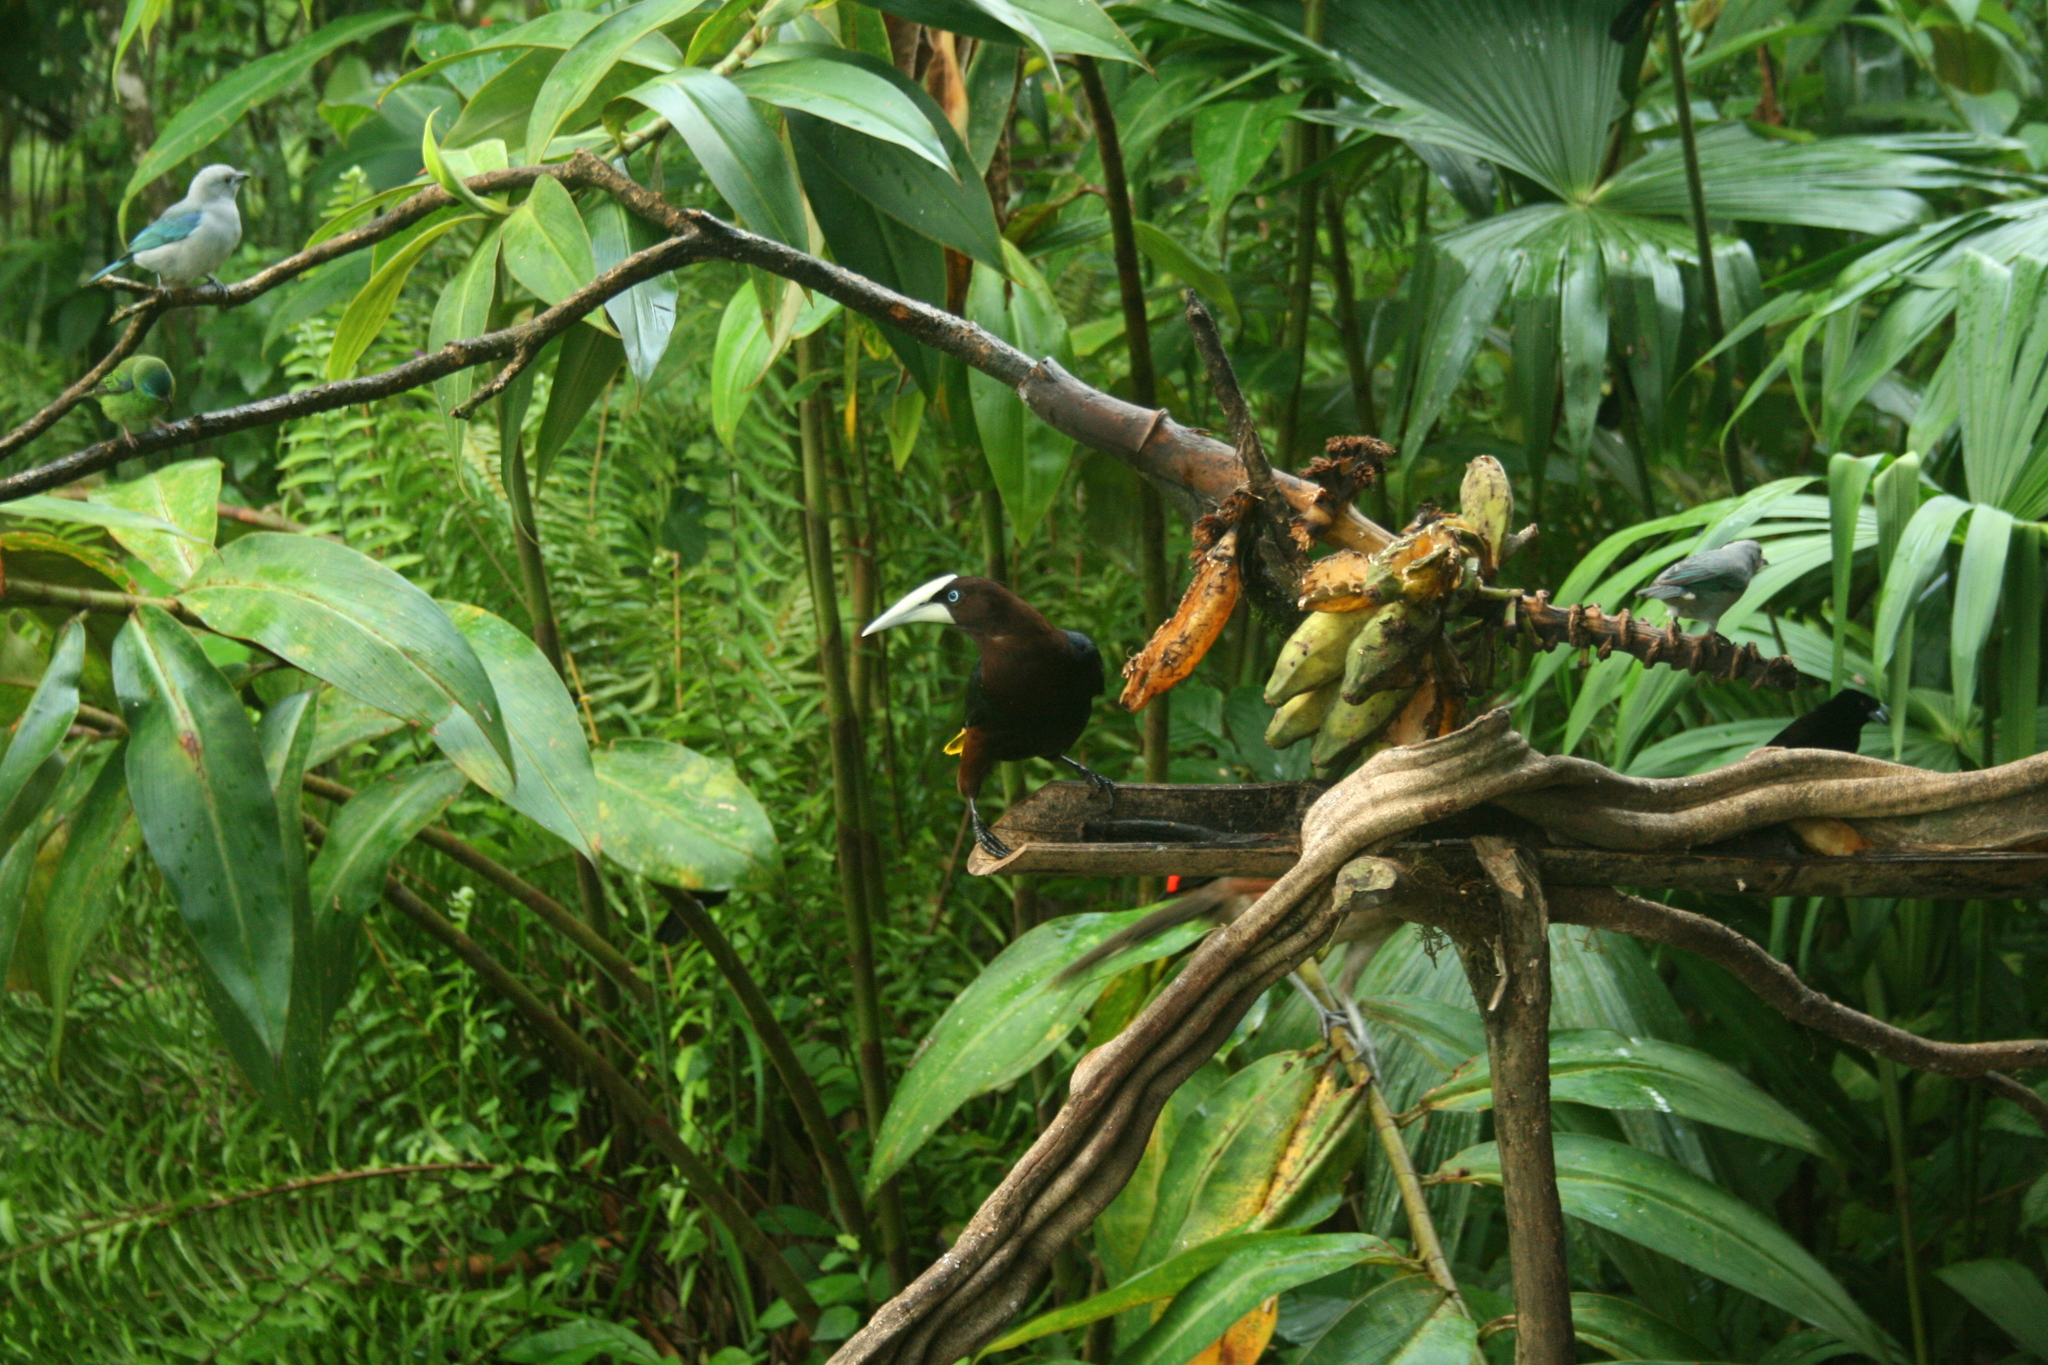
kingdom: Animalia
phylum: Chordata
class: Aves
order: Passeriformes
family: Icteridae
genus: Psarocolius
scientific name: Psarocolius wagleri
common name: Chestnut-headed oropendola
